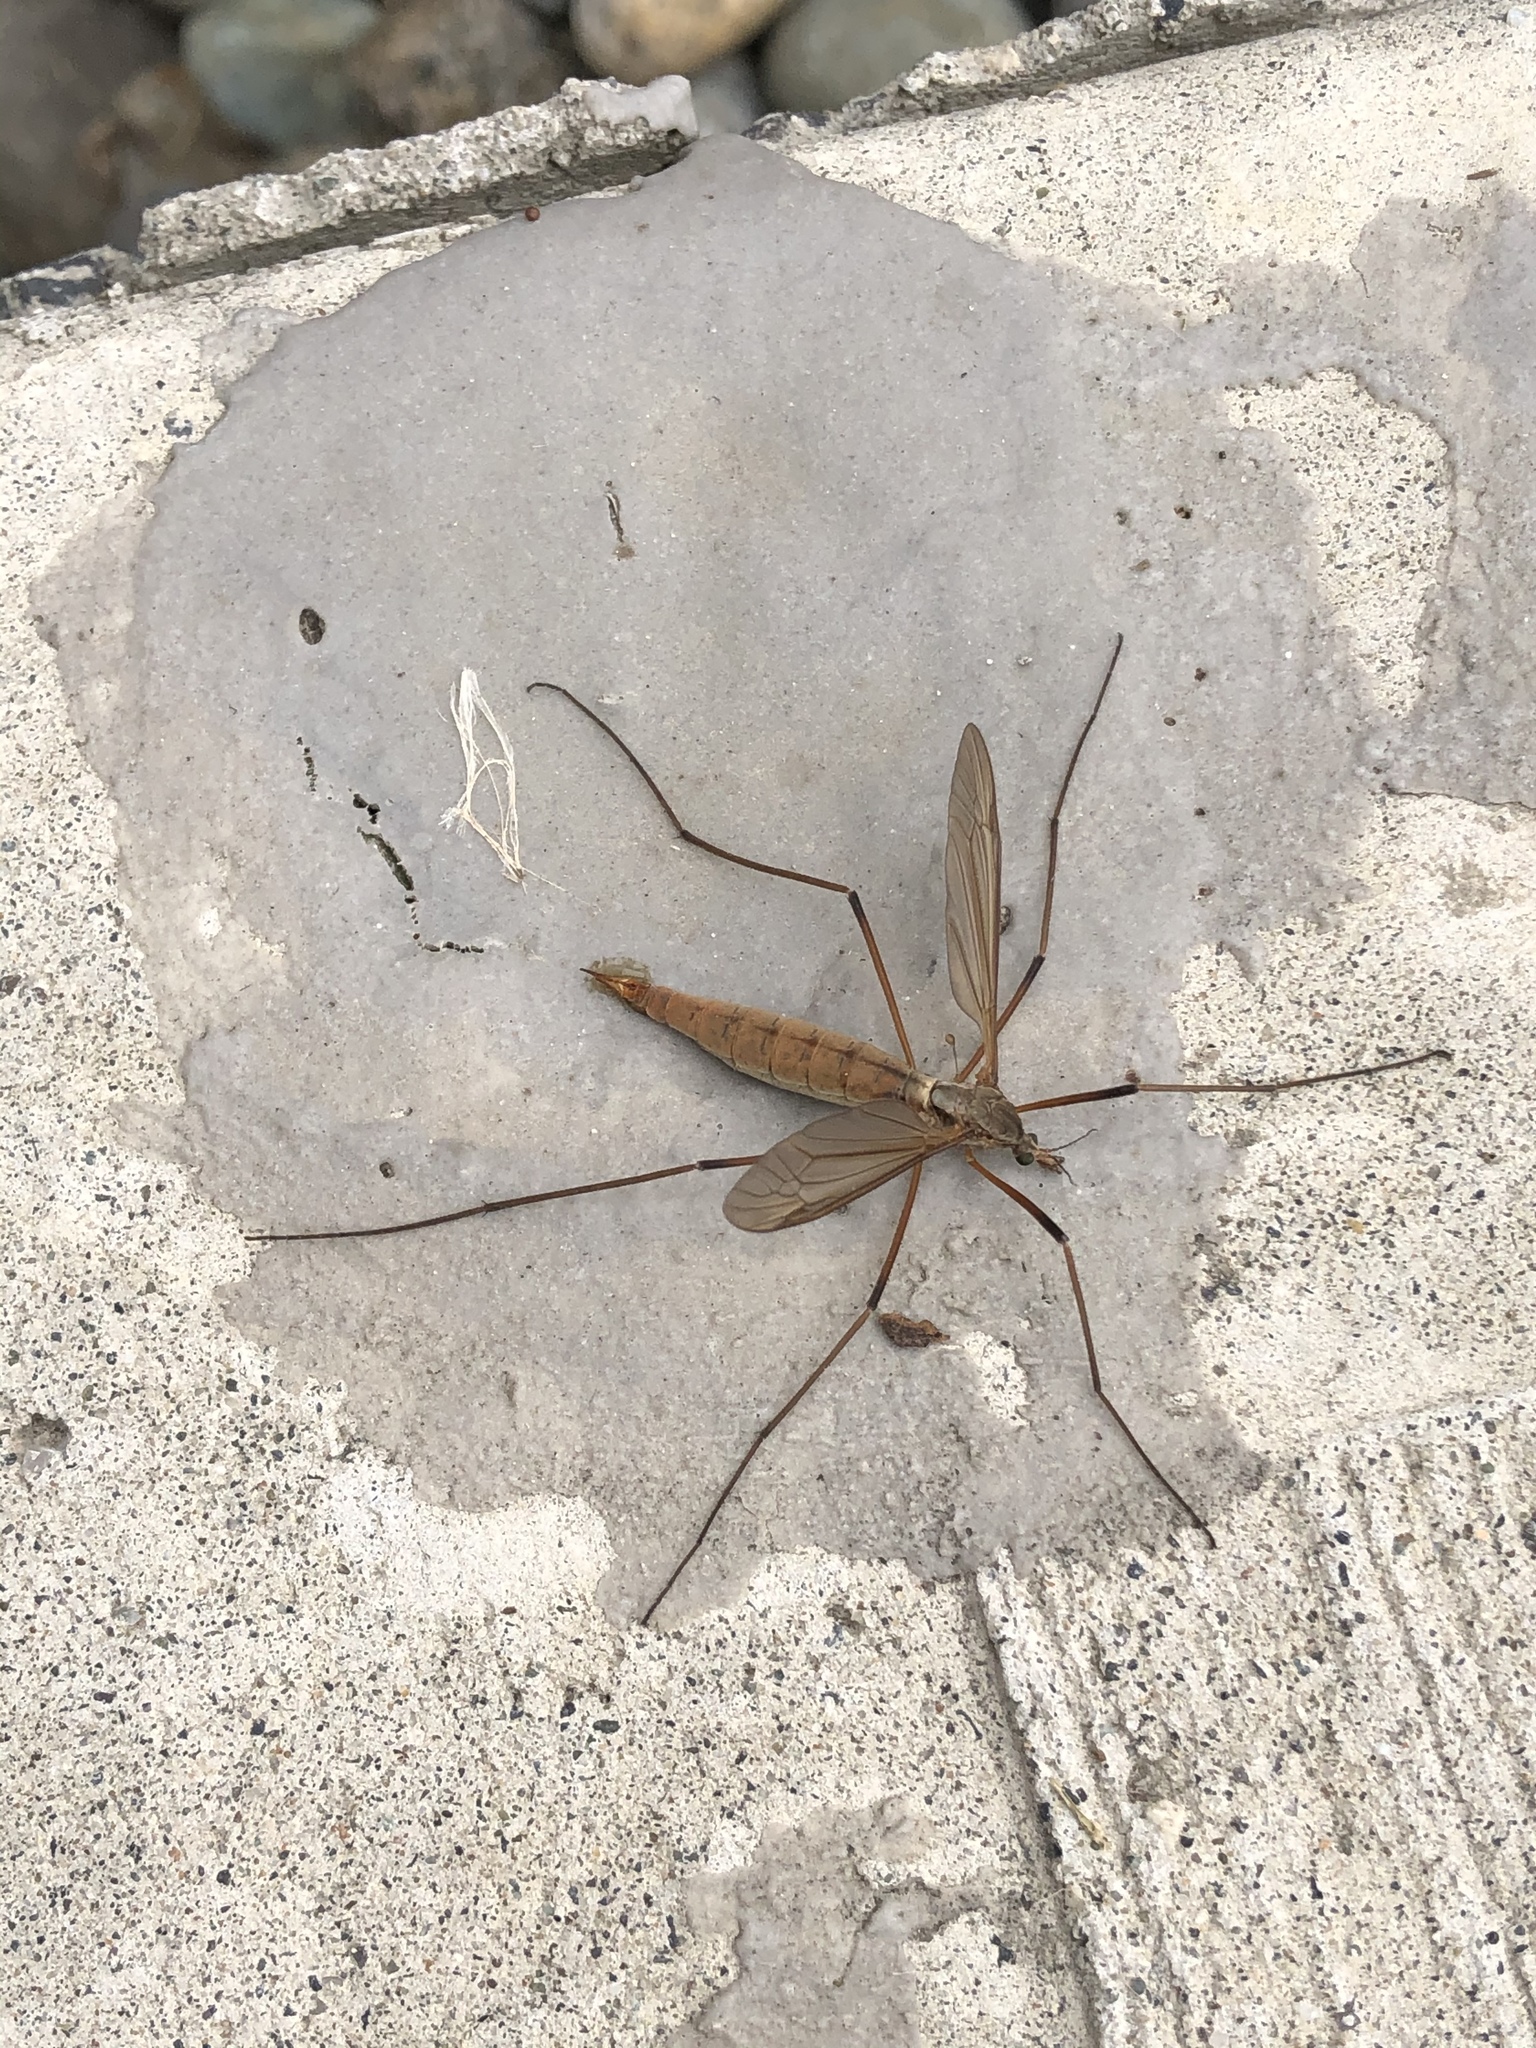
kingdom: Animalia
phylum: Arthropoda
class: Insecta
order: Diptera
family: Tipulidae
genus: Tipula
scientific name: Tipula paludosa
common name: European cranefly
